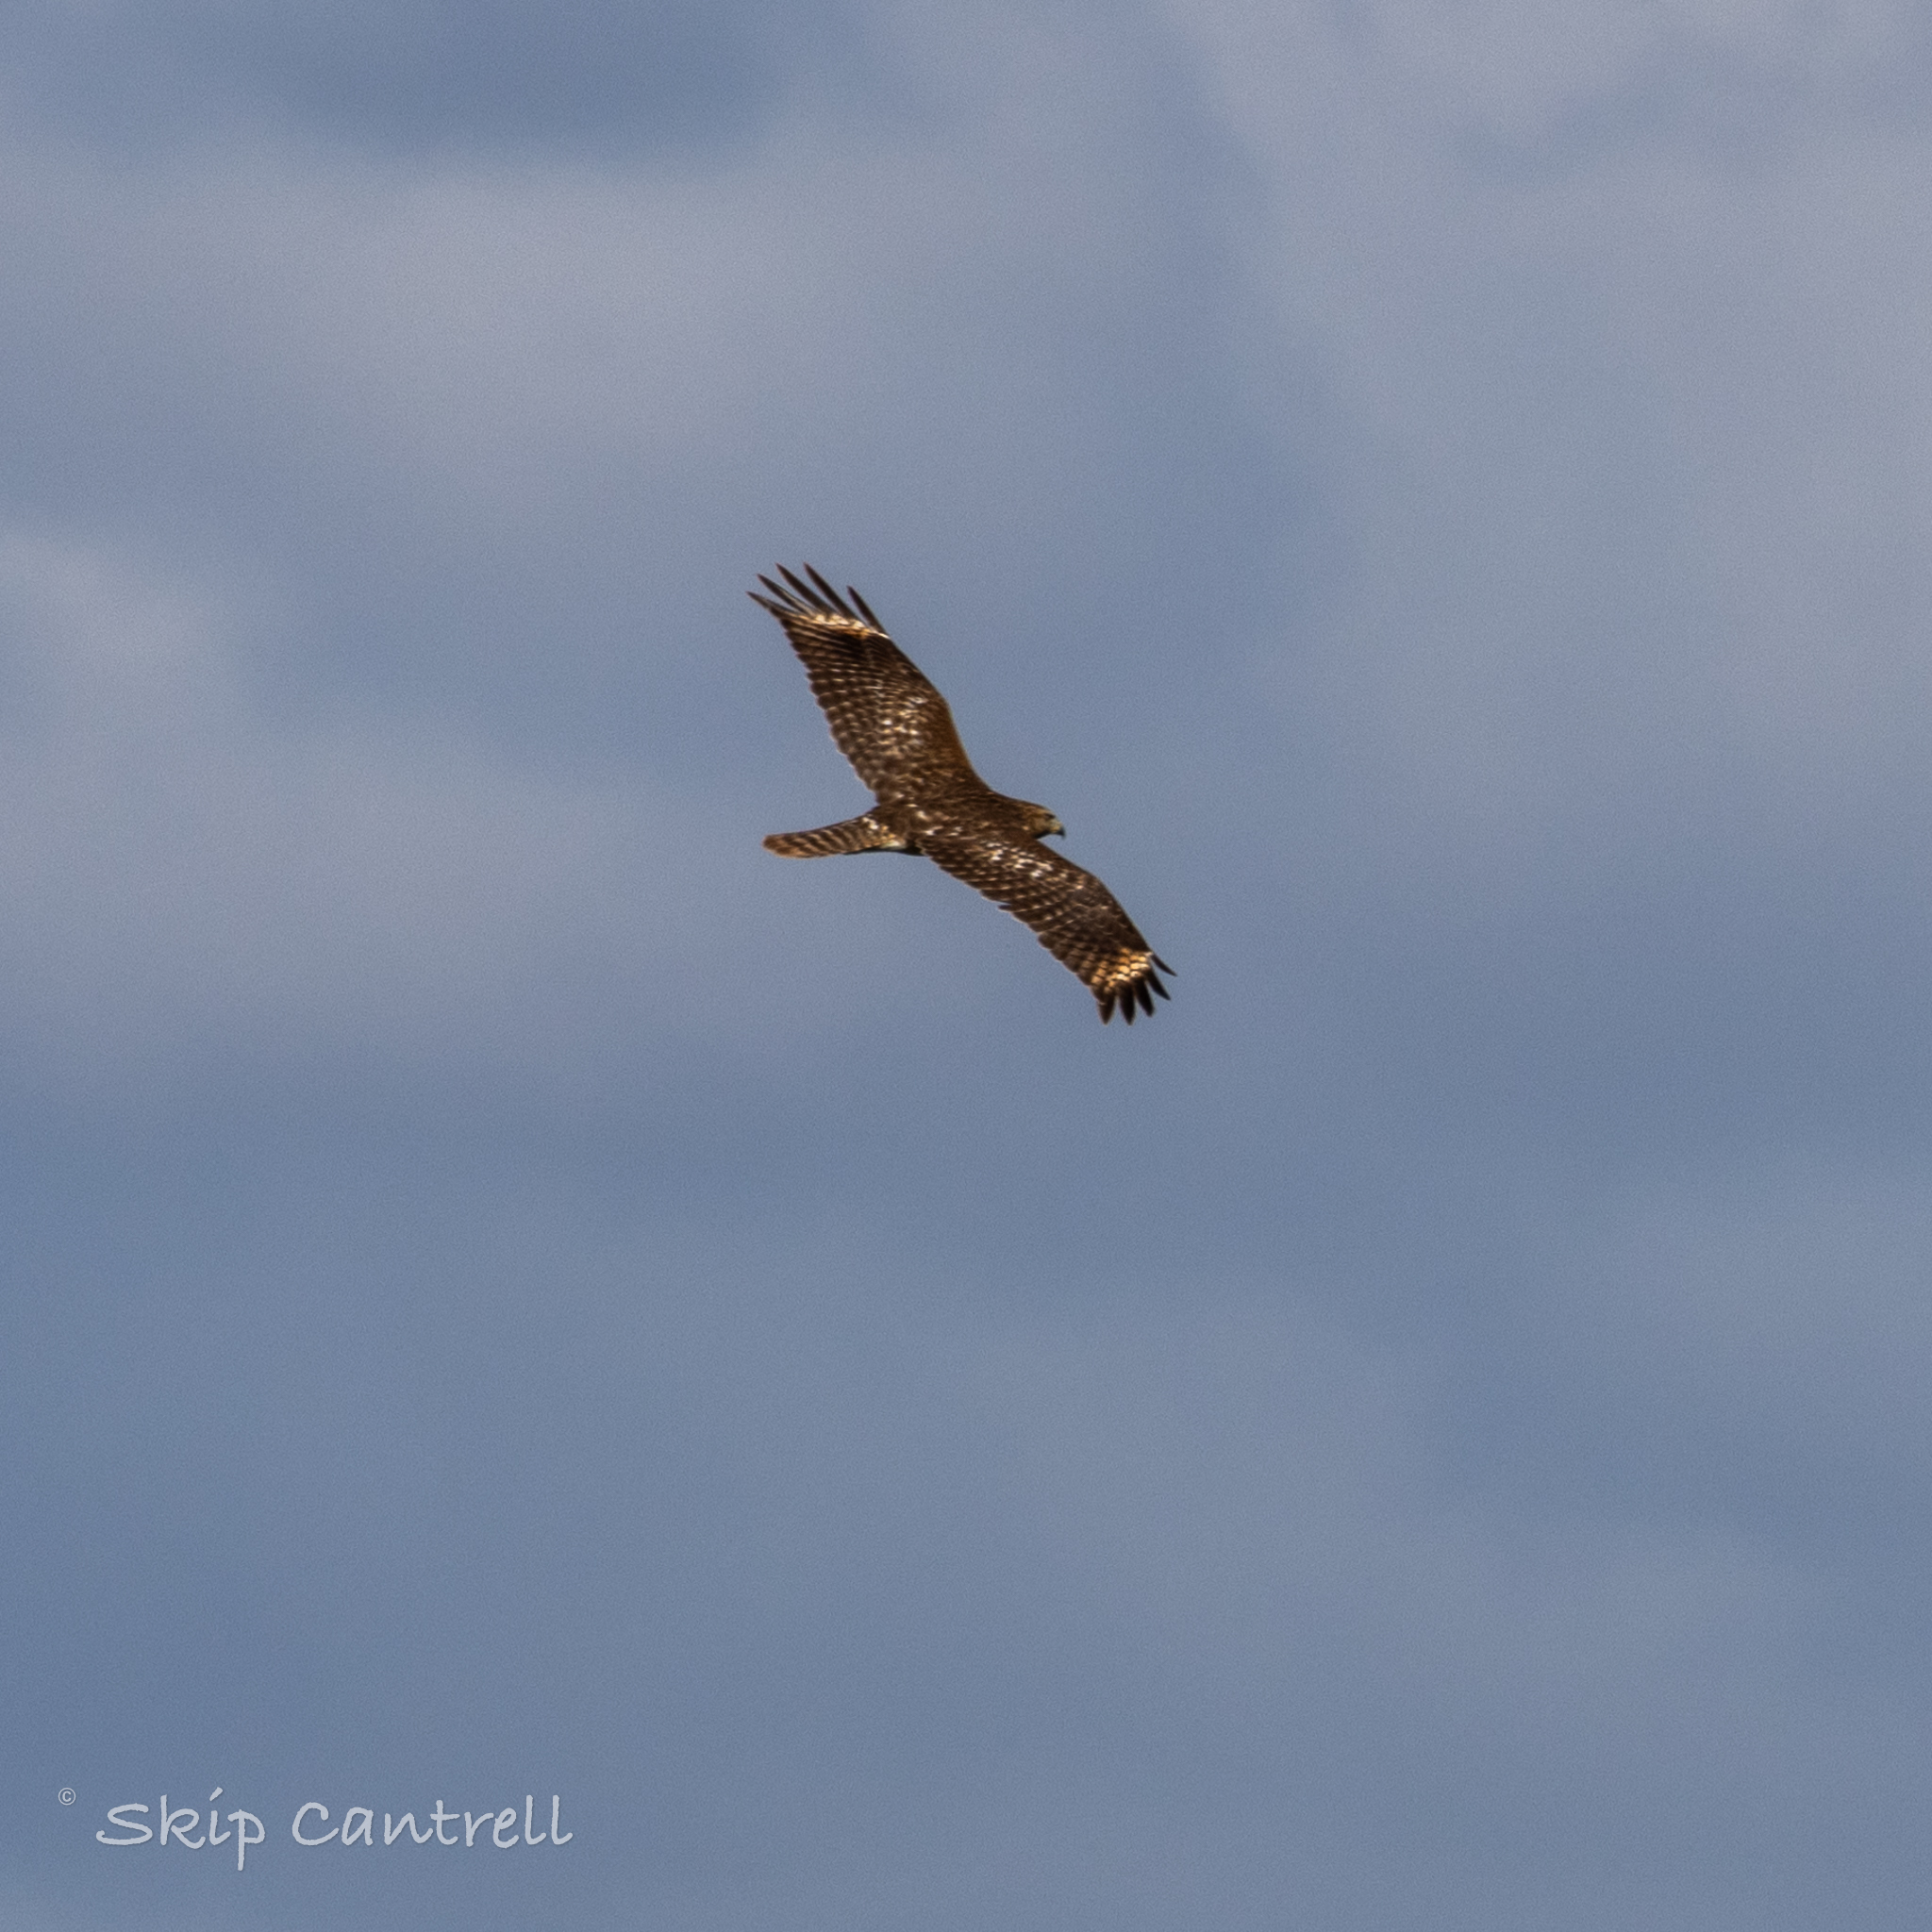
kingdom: Animalia
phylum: Chordata
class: Aves
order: Accipitriformes
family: Accipitridae
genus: Buteo
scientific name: Buteo lineatus
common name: Red-shouldered hawk
